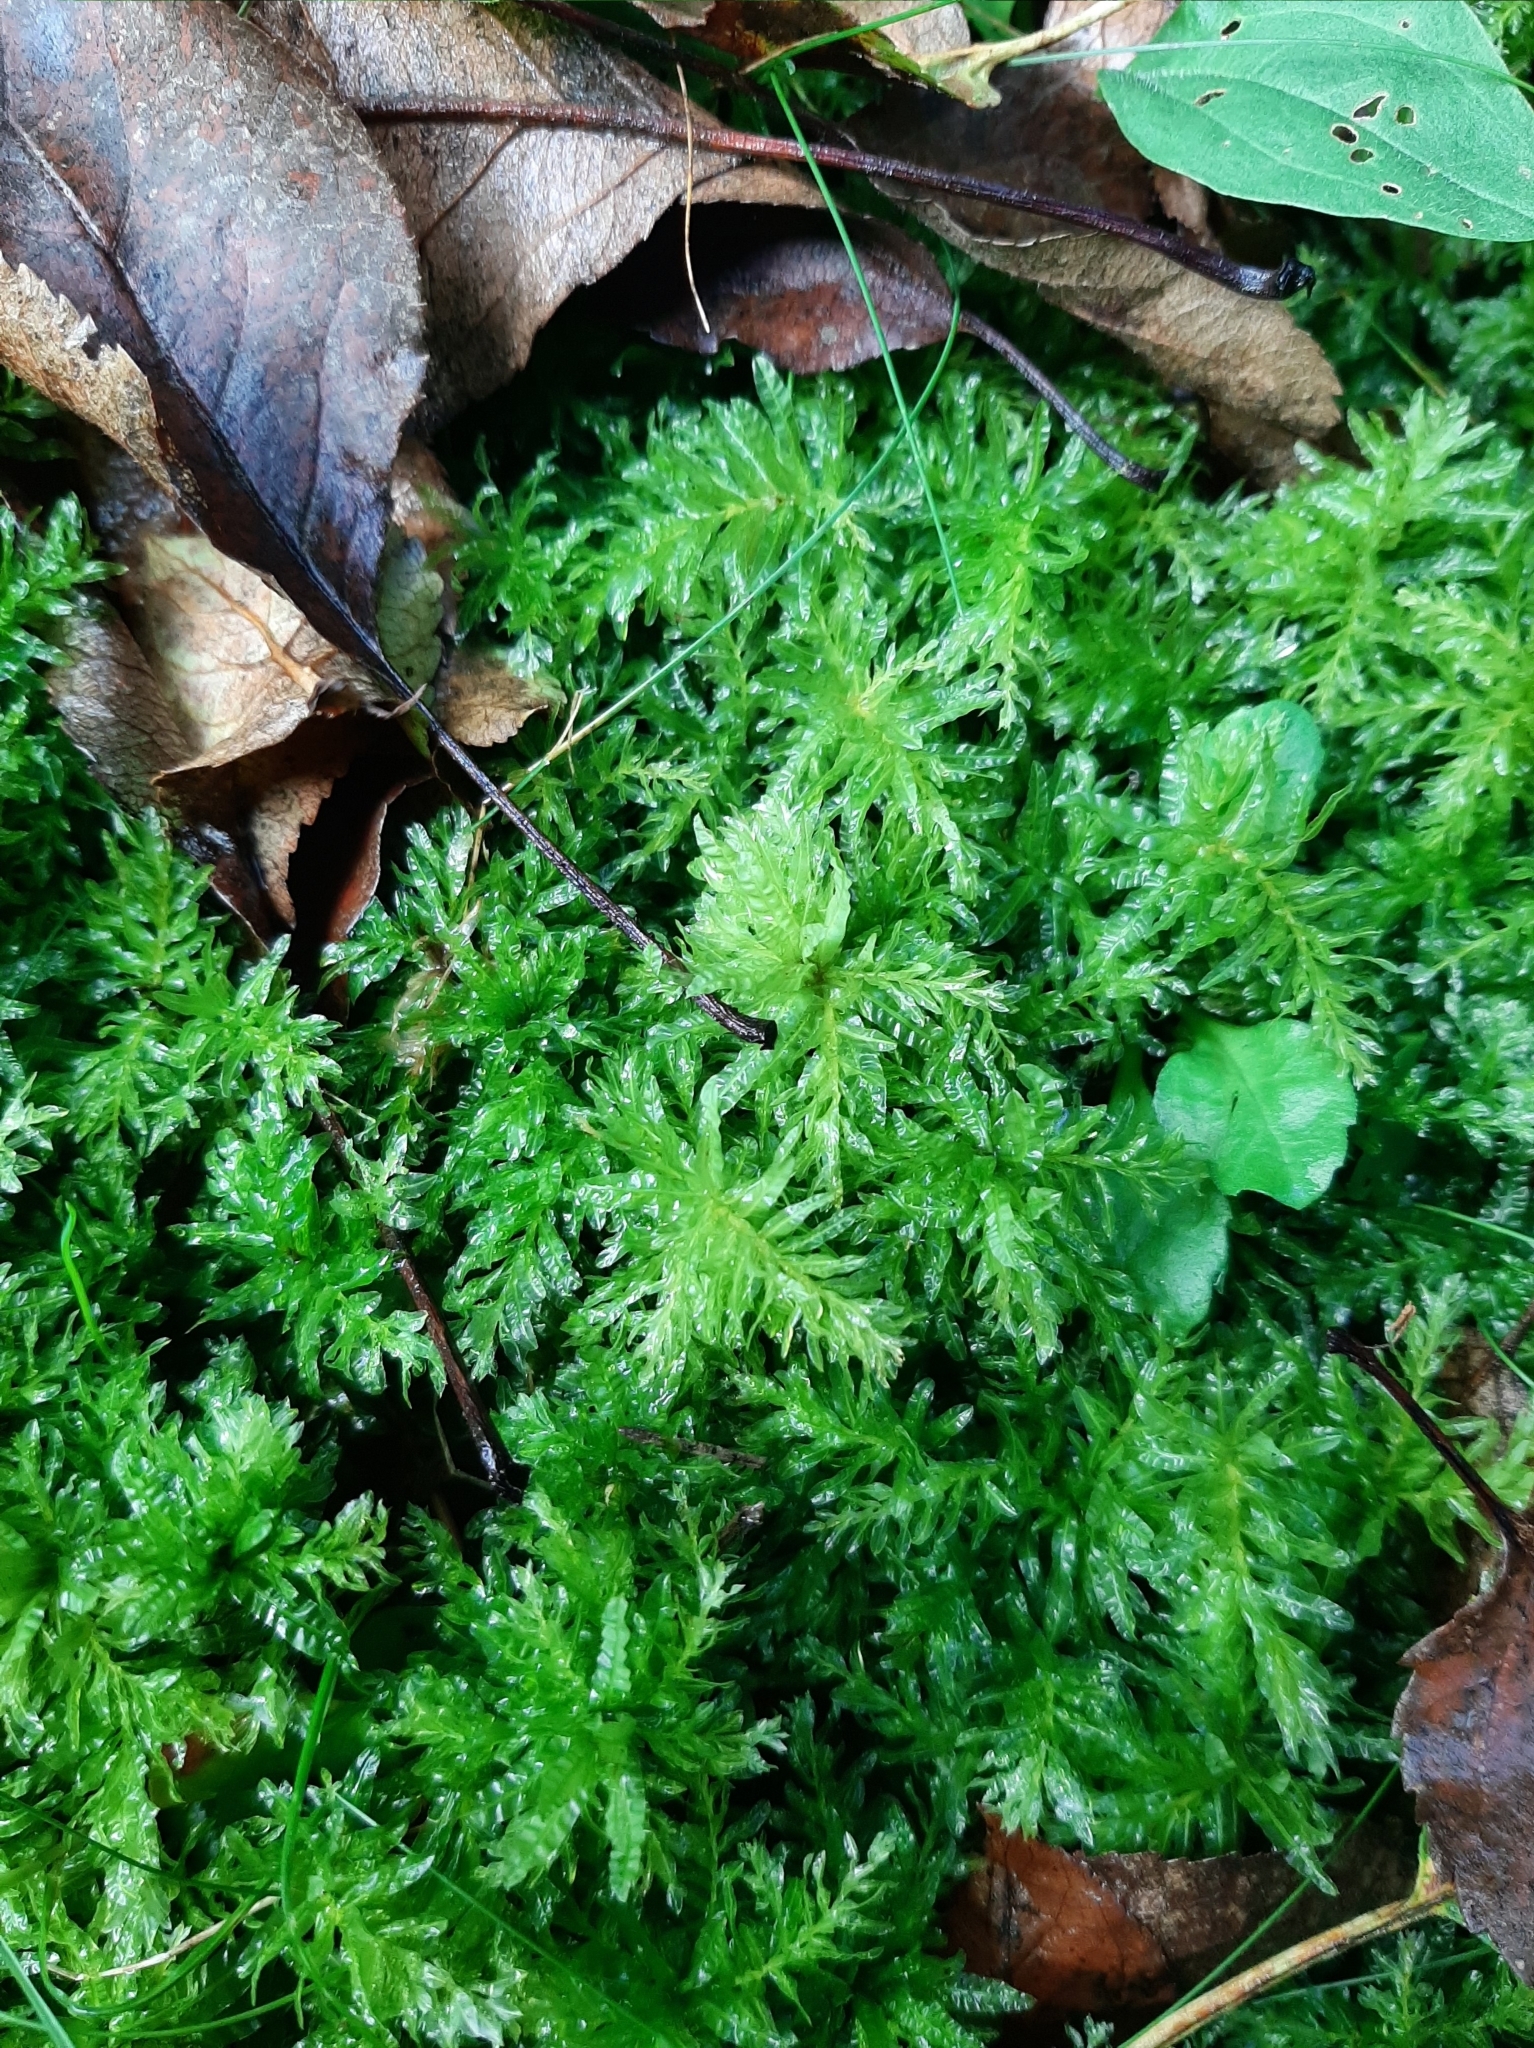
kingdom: Plantae
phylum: Bryophyta
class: Bryopsida
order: Bryales
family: Mniaceae
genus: Plagiomnium
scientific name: Plagiomnium undulatum
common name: Hart's-tongue thyme-moss
